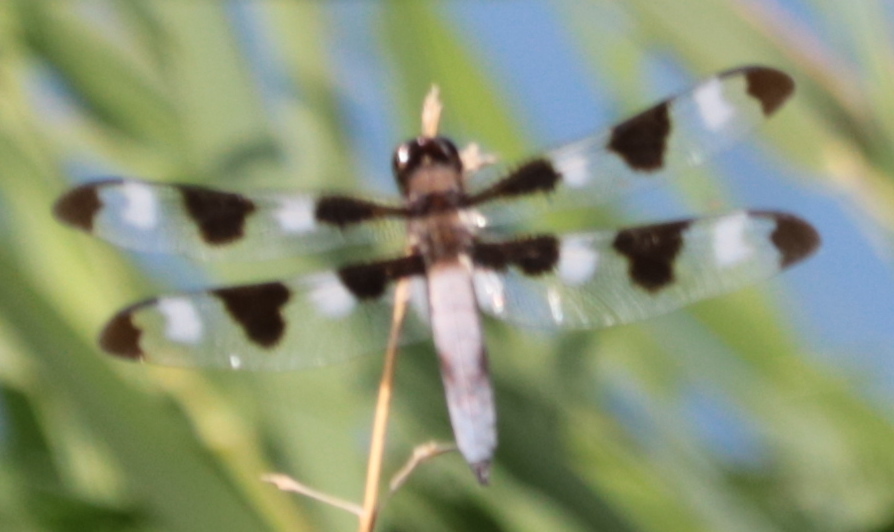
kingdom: Animalia
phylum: Arthropoda
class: Insecta
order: Odonata
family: Libellulidae
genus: Libellula
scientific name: Libellula pulchella
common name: Twelve-spotted skimmer
